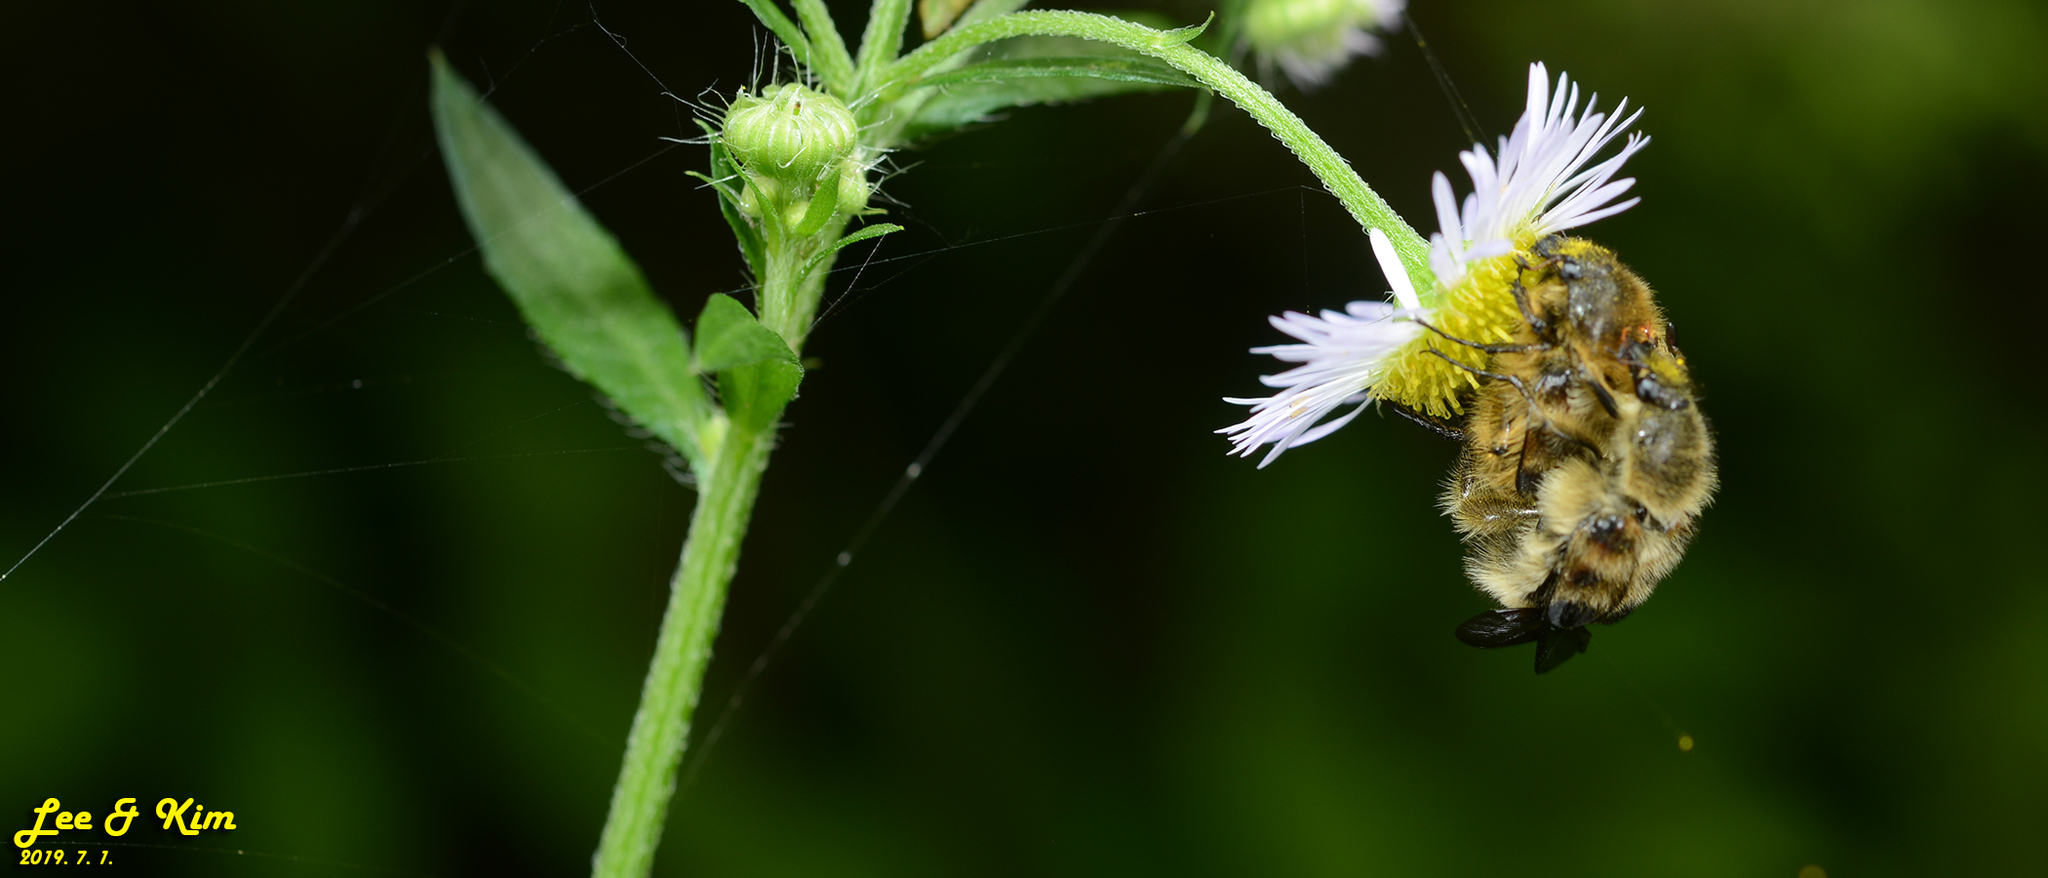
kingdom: Animalia
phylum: Arthropoda
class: Insecta
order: Coleoptera
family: Scarabaeidae
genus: Lasiotrichius
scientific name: Lasiotrichius succinctus
